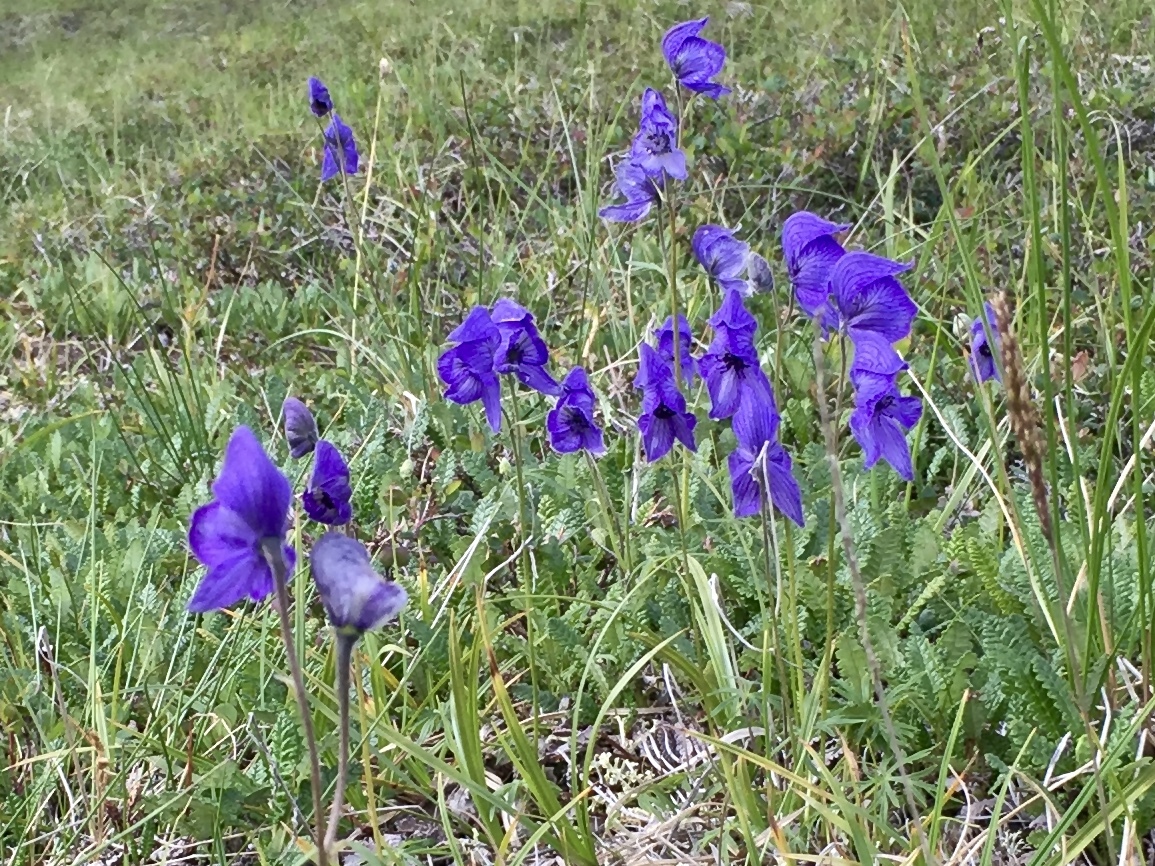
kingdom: Plantae
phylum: Tracheophyta
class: Magnoliopsida
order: Ranunculales
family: Ranunculaceae
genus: Aconitum
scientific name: Aconitum delphiniifolium
